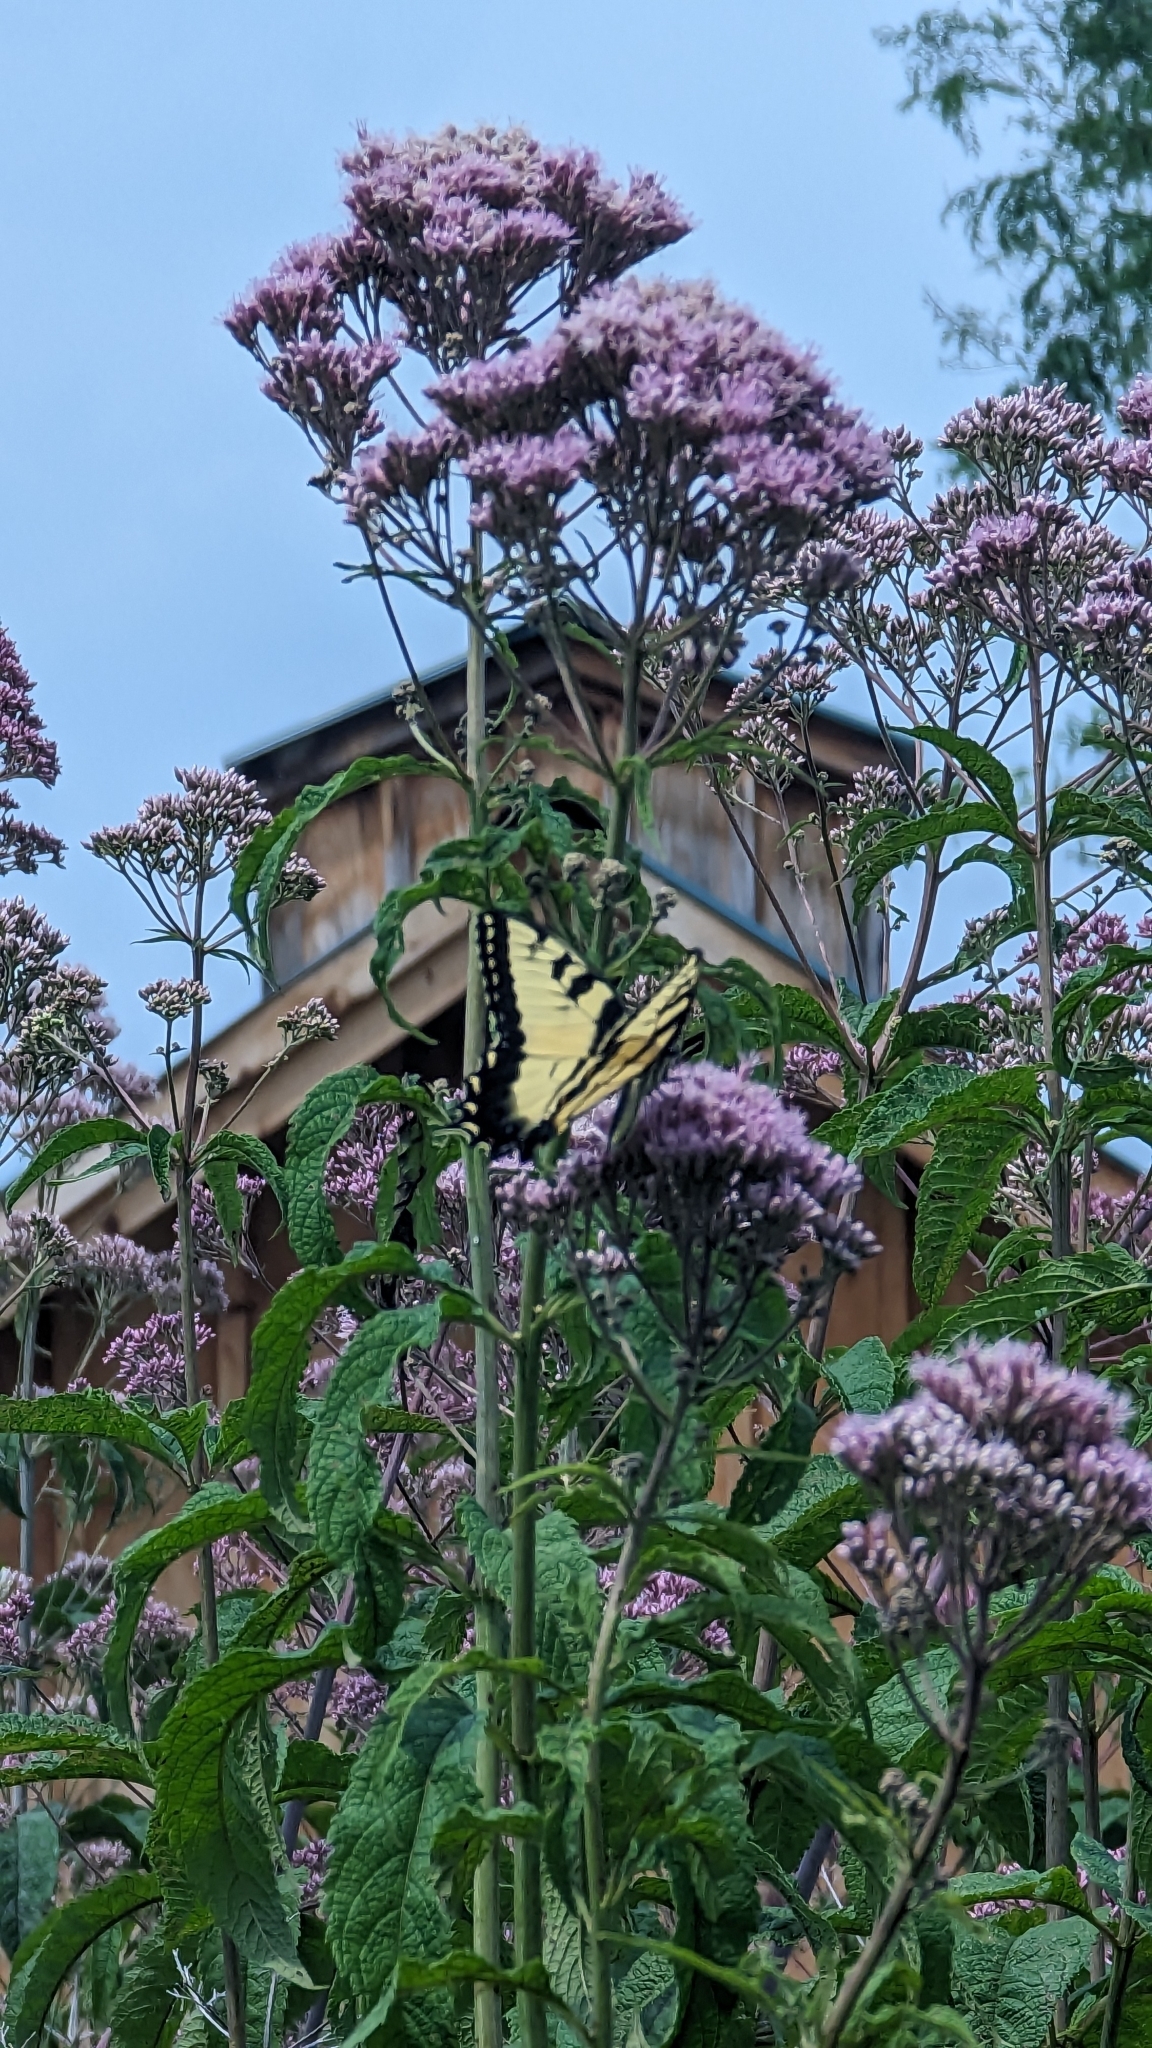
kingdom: Animalia
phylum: Arthropoda
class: Insecta
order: Lepidoptera
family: Papilionidae
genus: Papilio
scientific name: Papilio glaucus
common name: Tiger swallowtail
